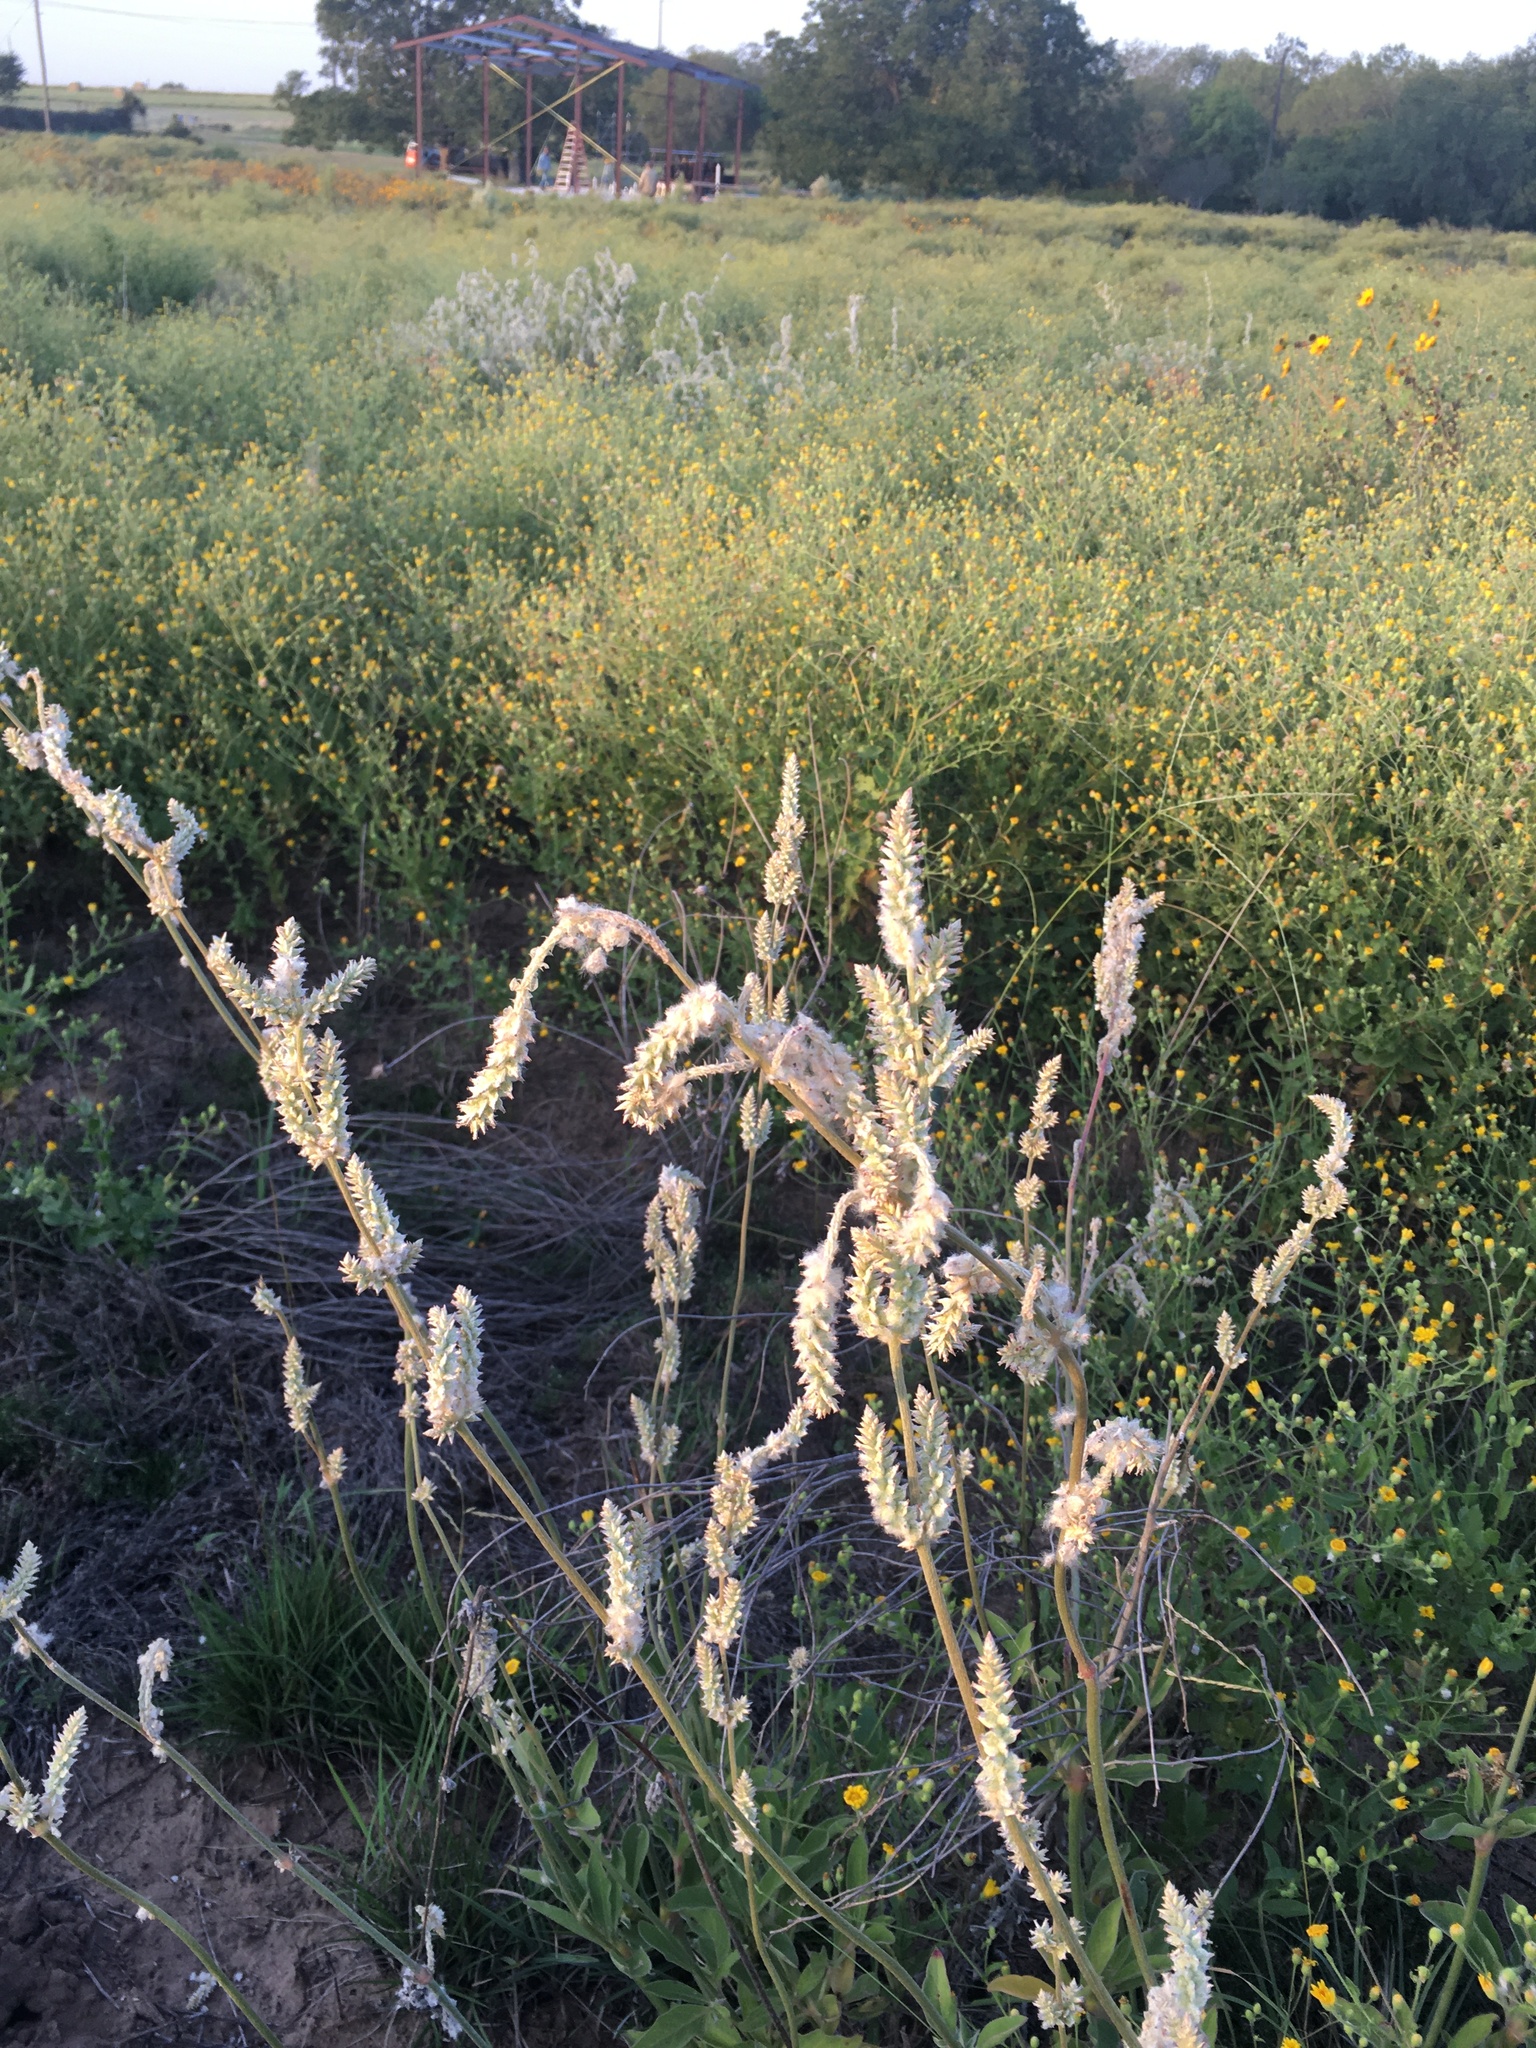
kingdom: Plantae
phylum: Tracheophyta
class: Magnoliopsida
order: Caryophyllales
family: Amaranthaceae
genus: Froelichia
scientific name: Froelichia floridana
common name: Florida snake-cotton
